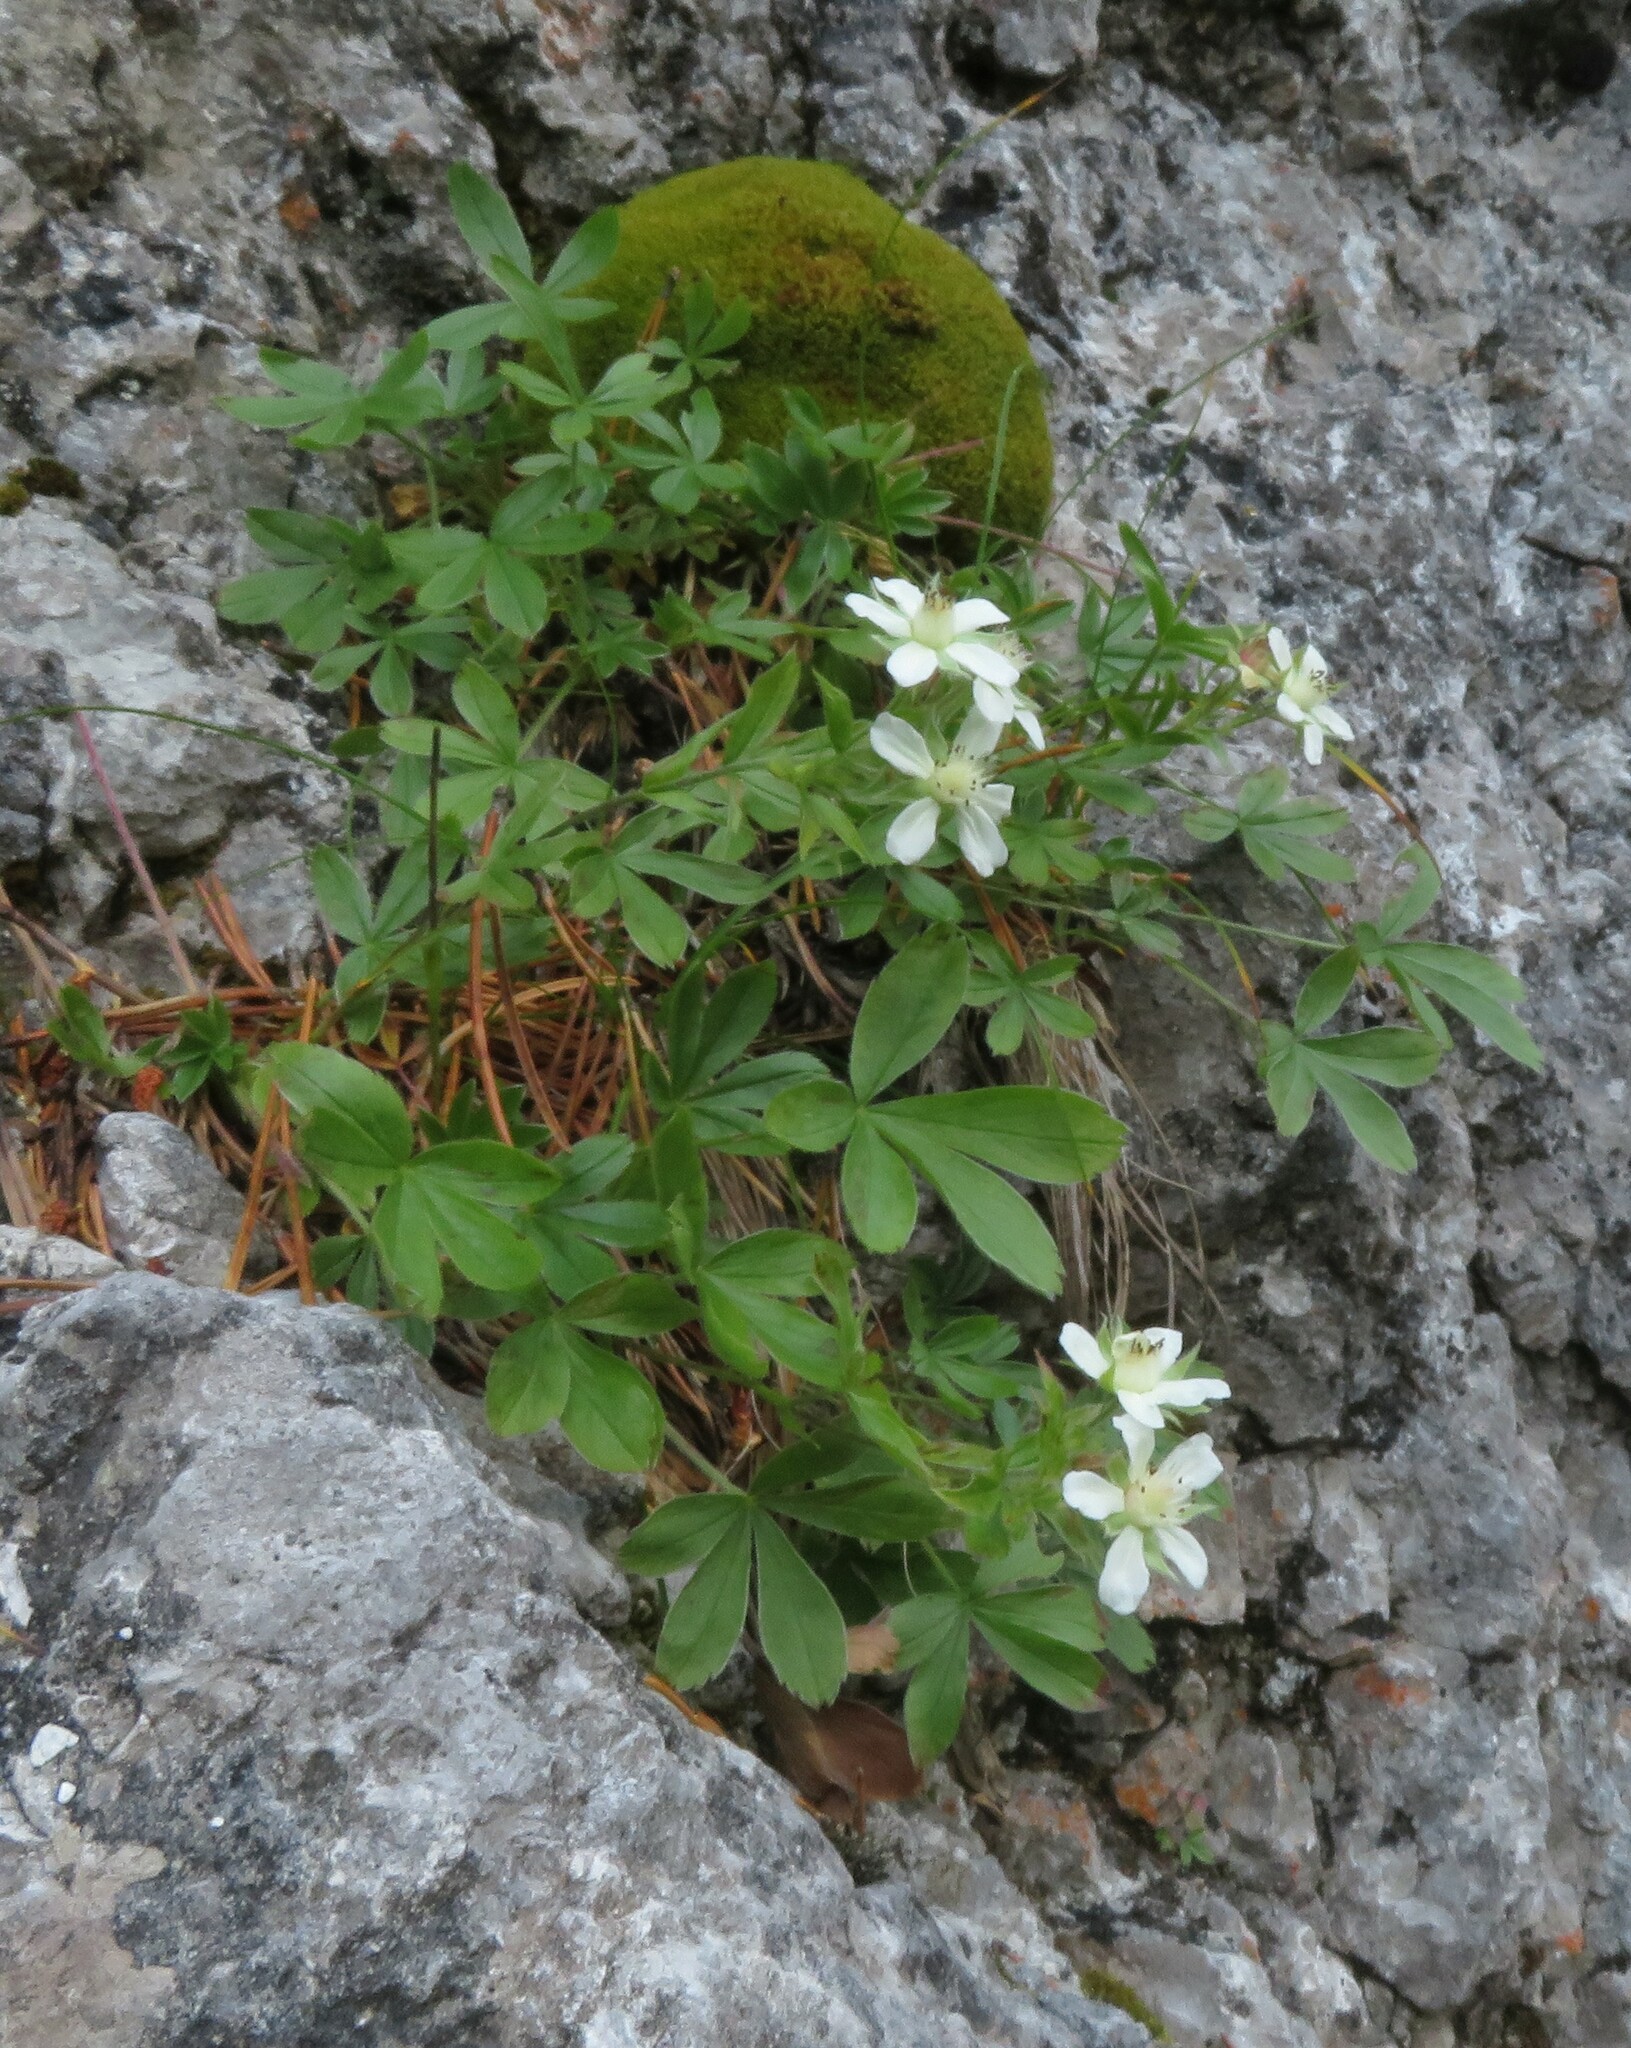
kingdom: Plantae
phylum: Tracheophyta
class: Magnoliopsida
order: Rosales
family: Rosaceae
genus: Potentilla
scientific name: Potentilla caulescens
